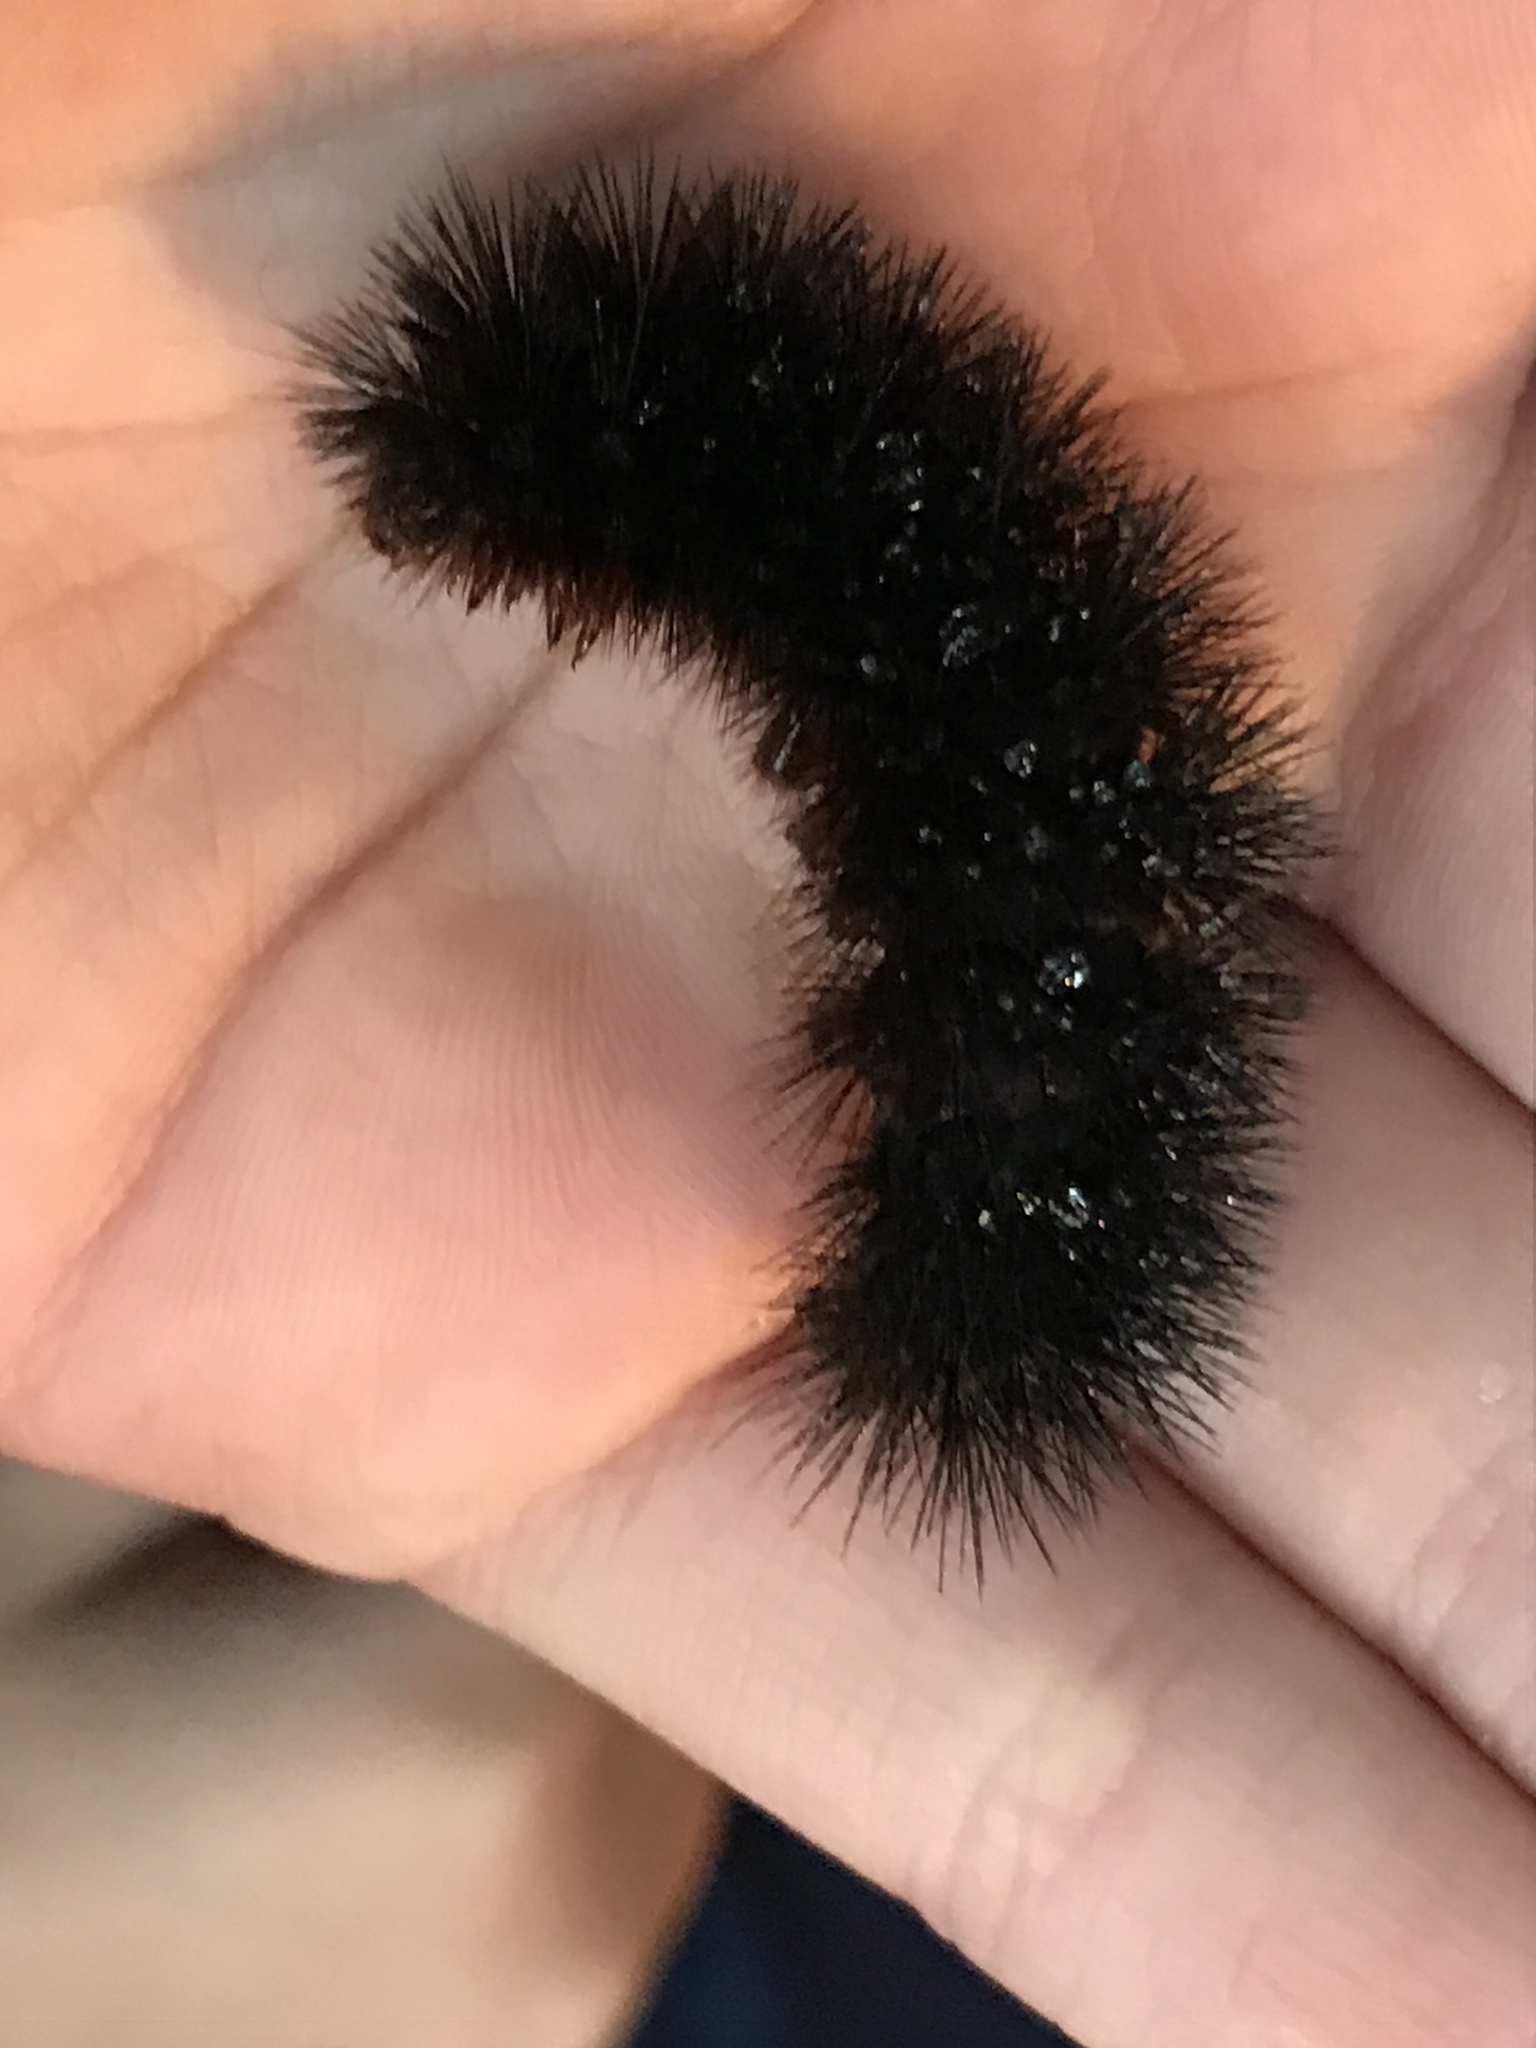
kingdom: Animalia
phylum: Arthropoda
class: Insecta
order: Lepidoptera
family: Erebidae
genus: Hypercompe
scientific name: Hypercompe scribonia
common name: Giant leopard moth
